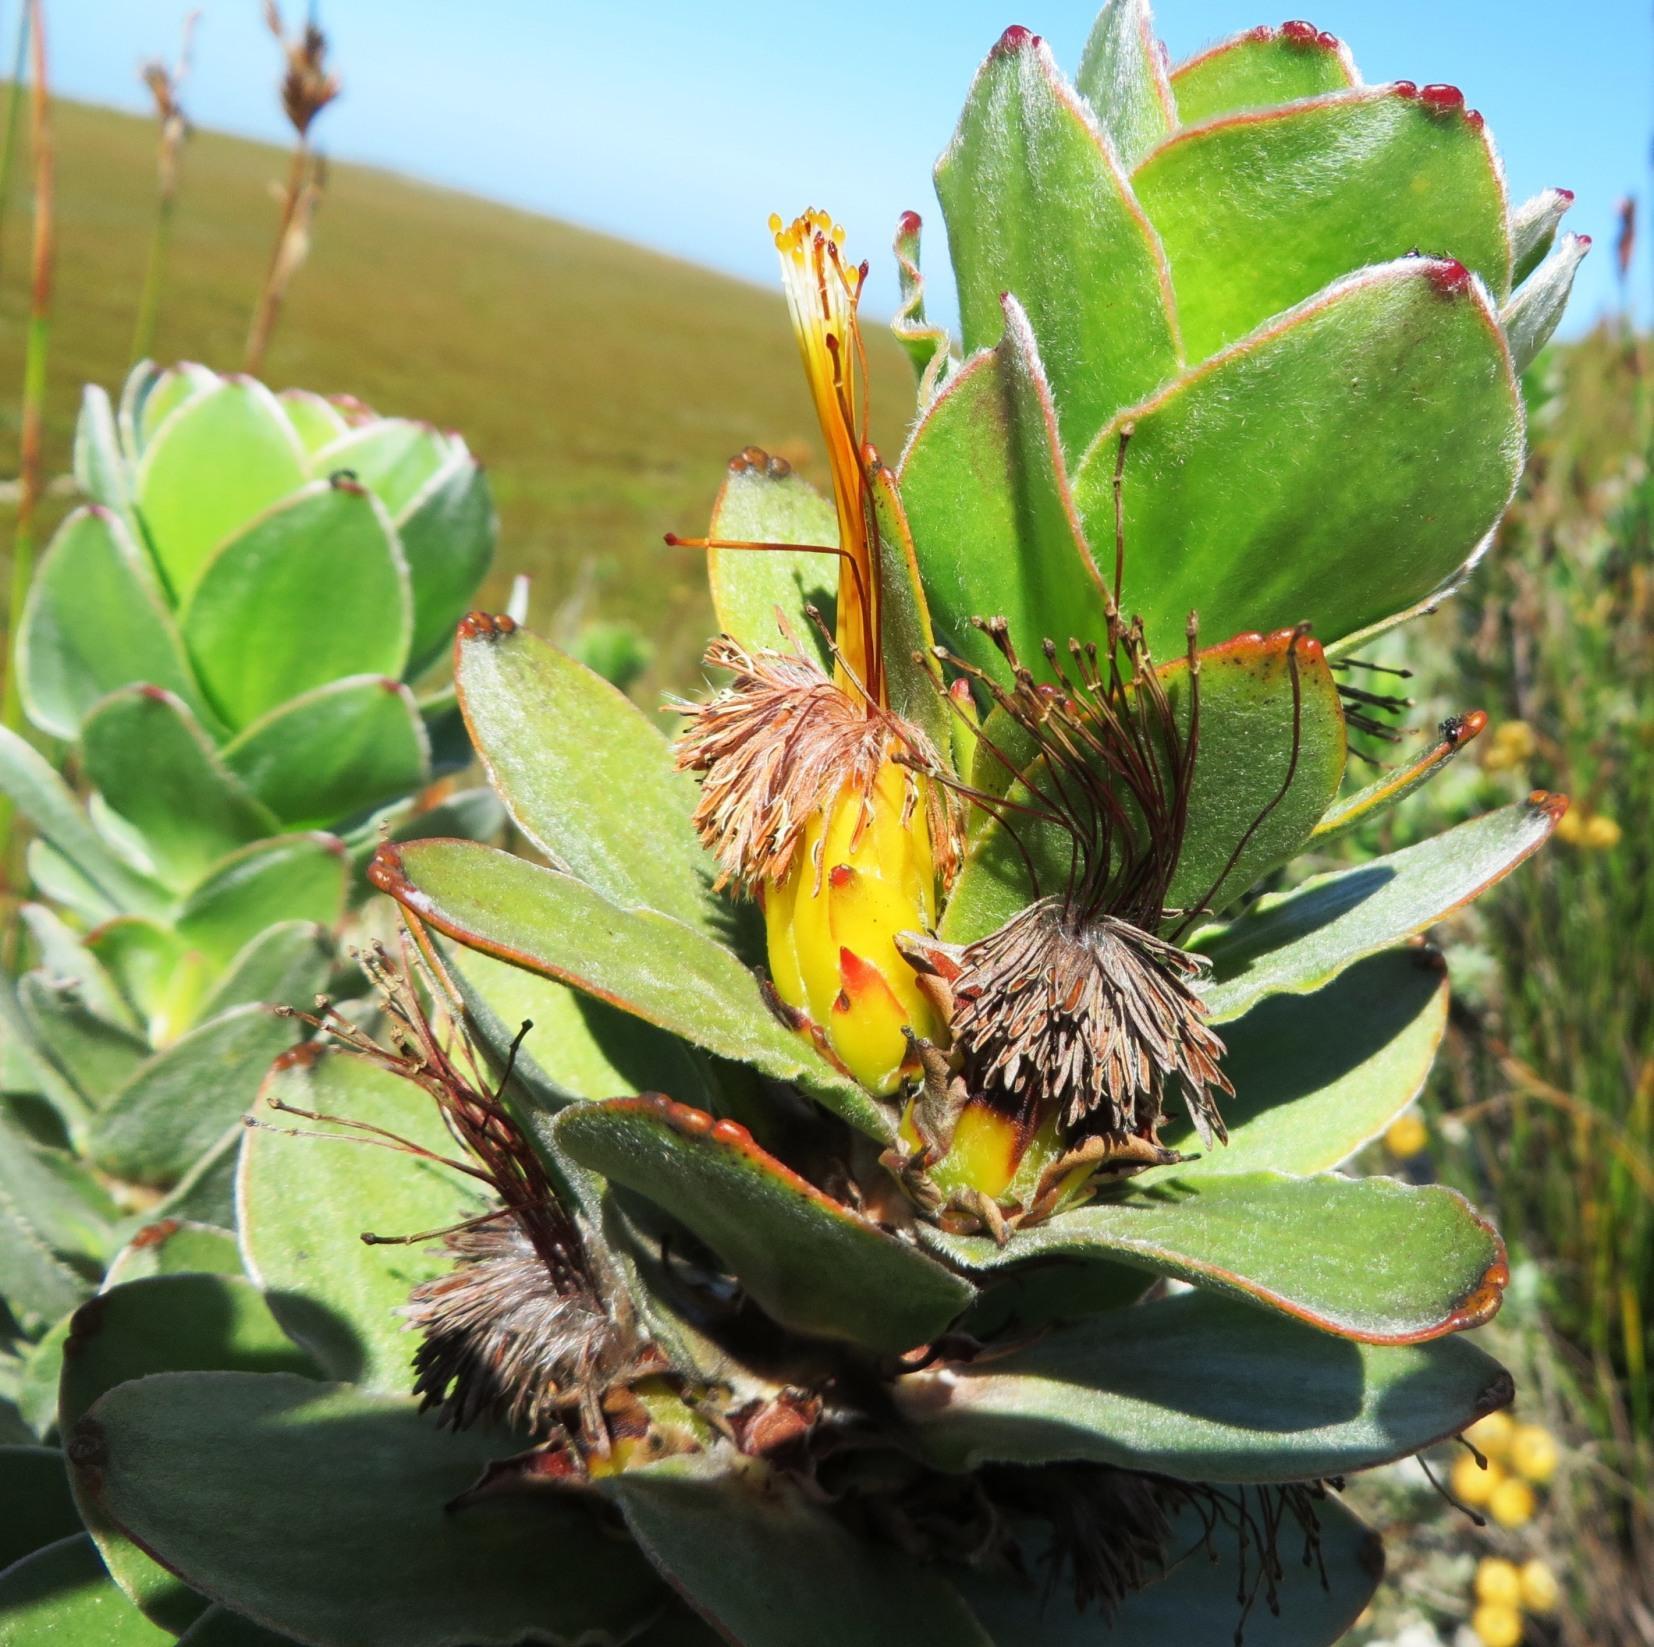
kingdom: Plantae
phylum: Tracheophyta
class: Magnoliopsida
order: Proteales
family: Proteaceae
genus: Mimetes
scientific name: Mimetes saxatilis
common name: Limestone pagoda
